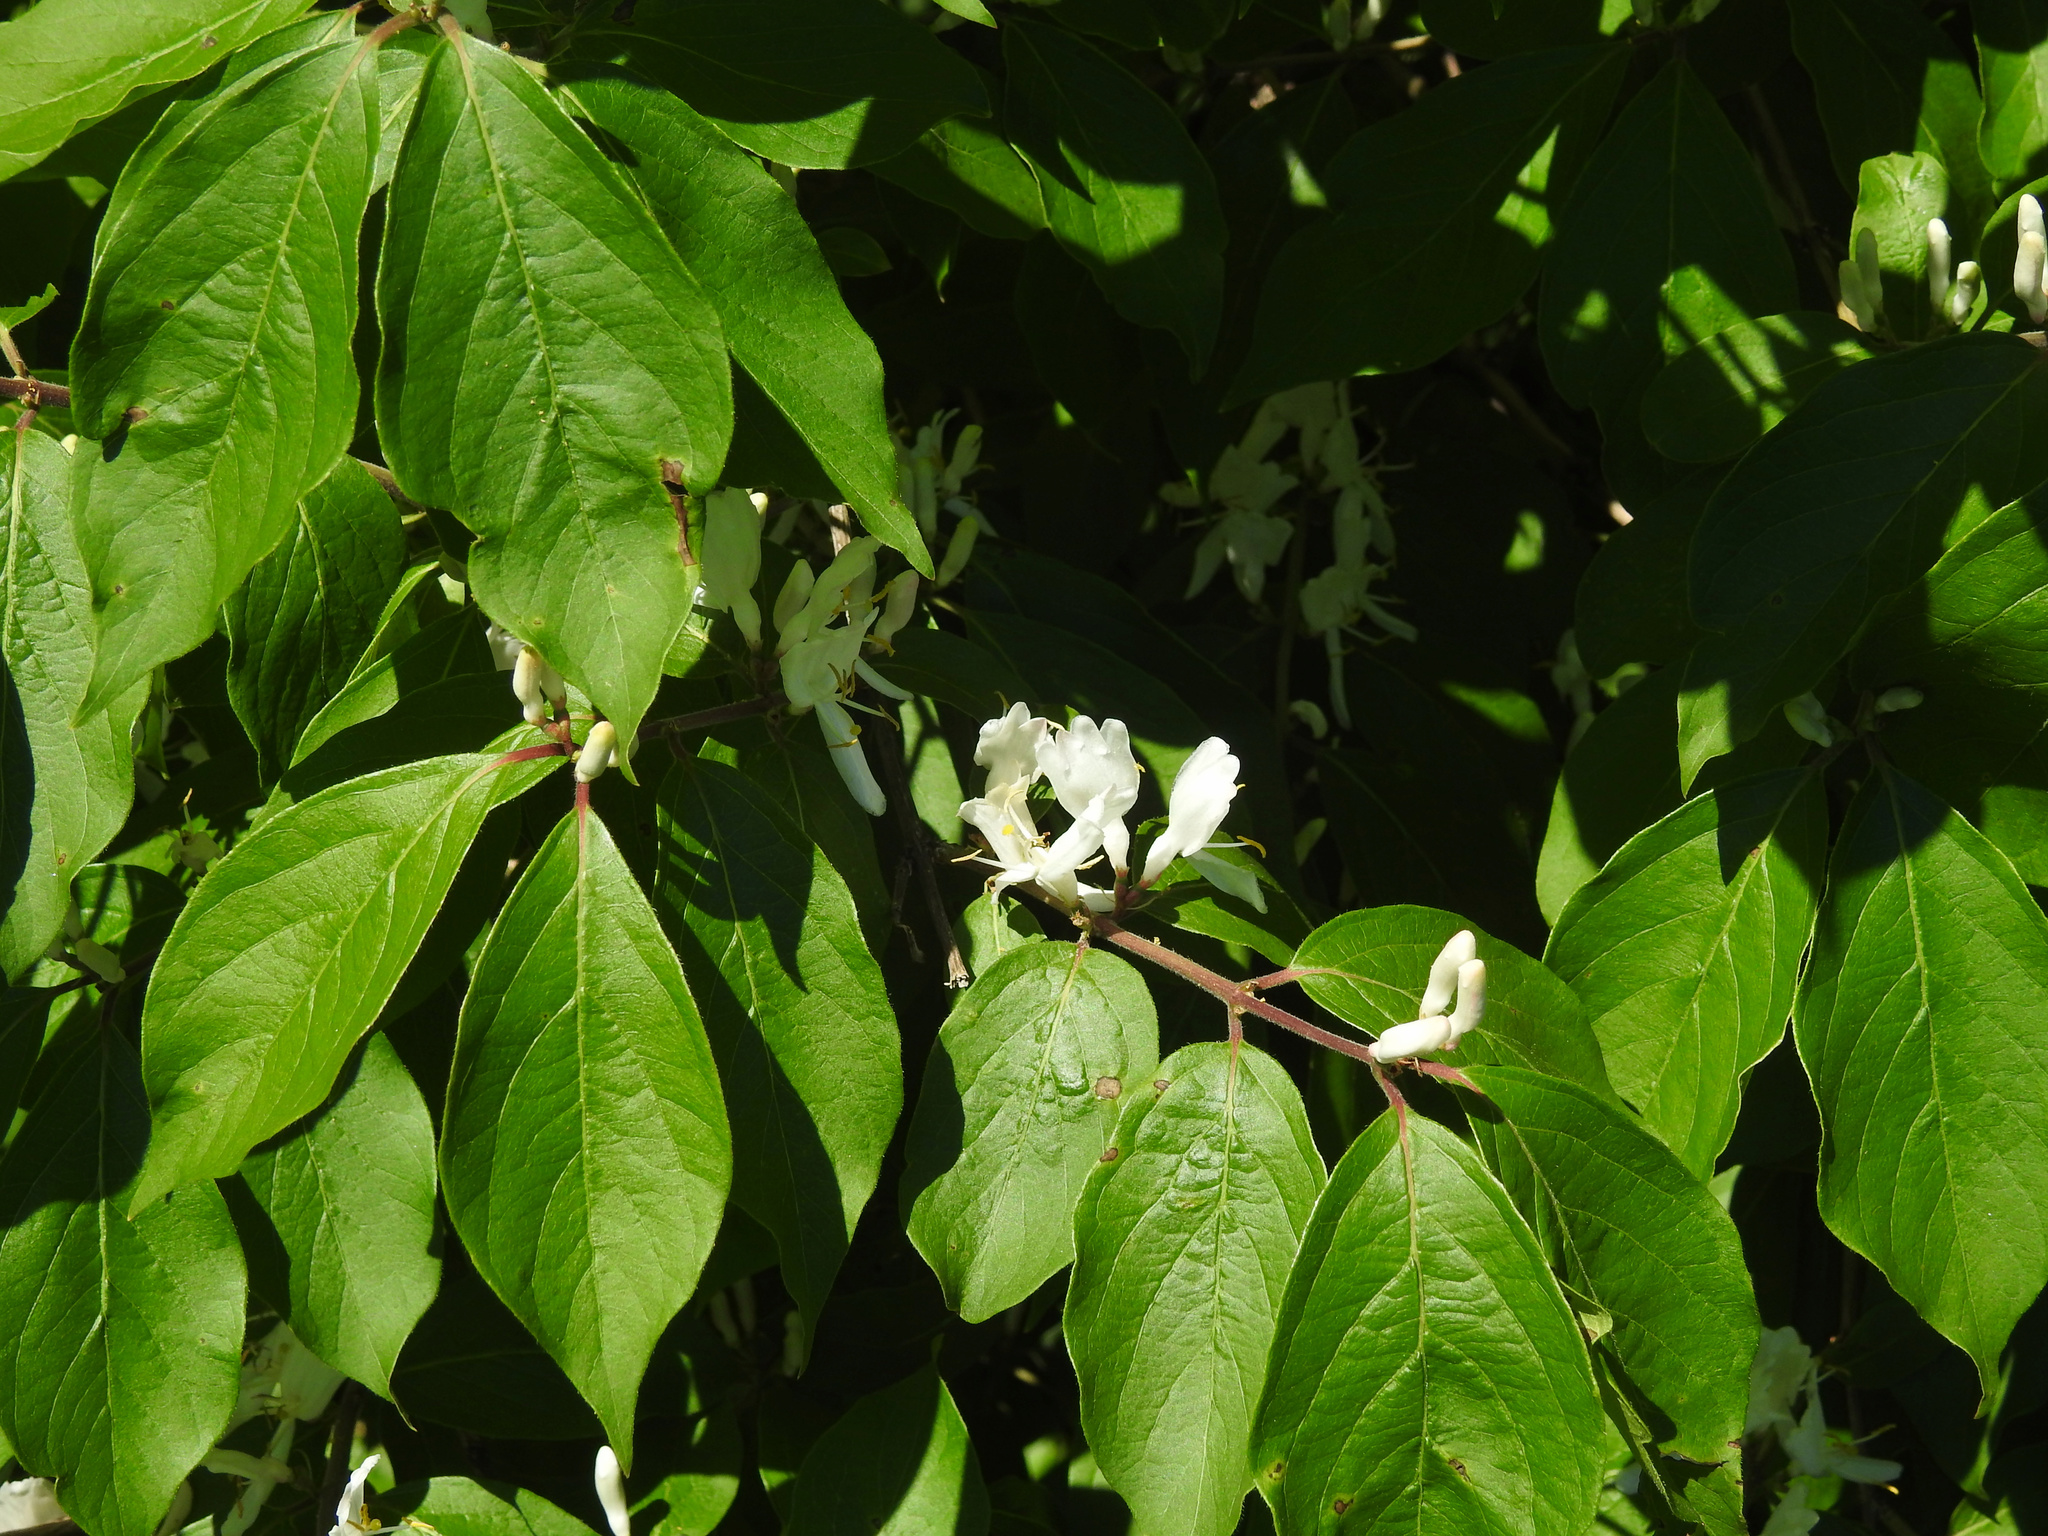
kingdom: Plantae
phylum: Tracheophyta
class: Magnoliopsida
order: Dipsacales
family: Caprifoliaceae
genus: Lonicera
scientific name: Lonicera maackii
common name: Amur honeysuckle
